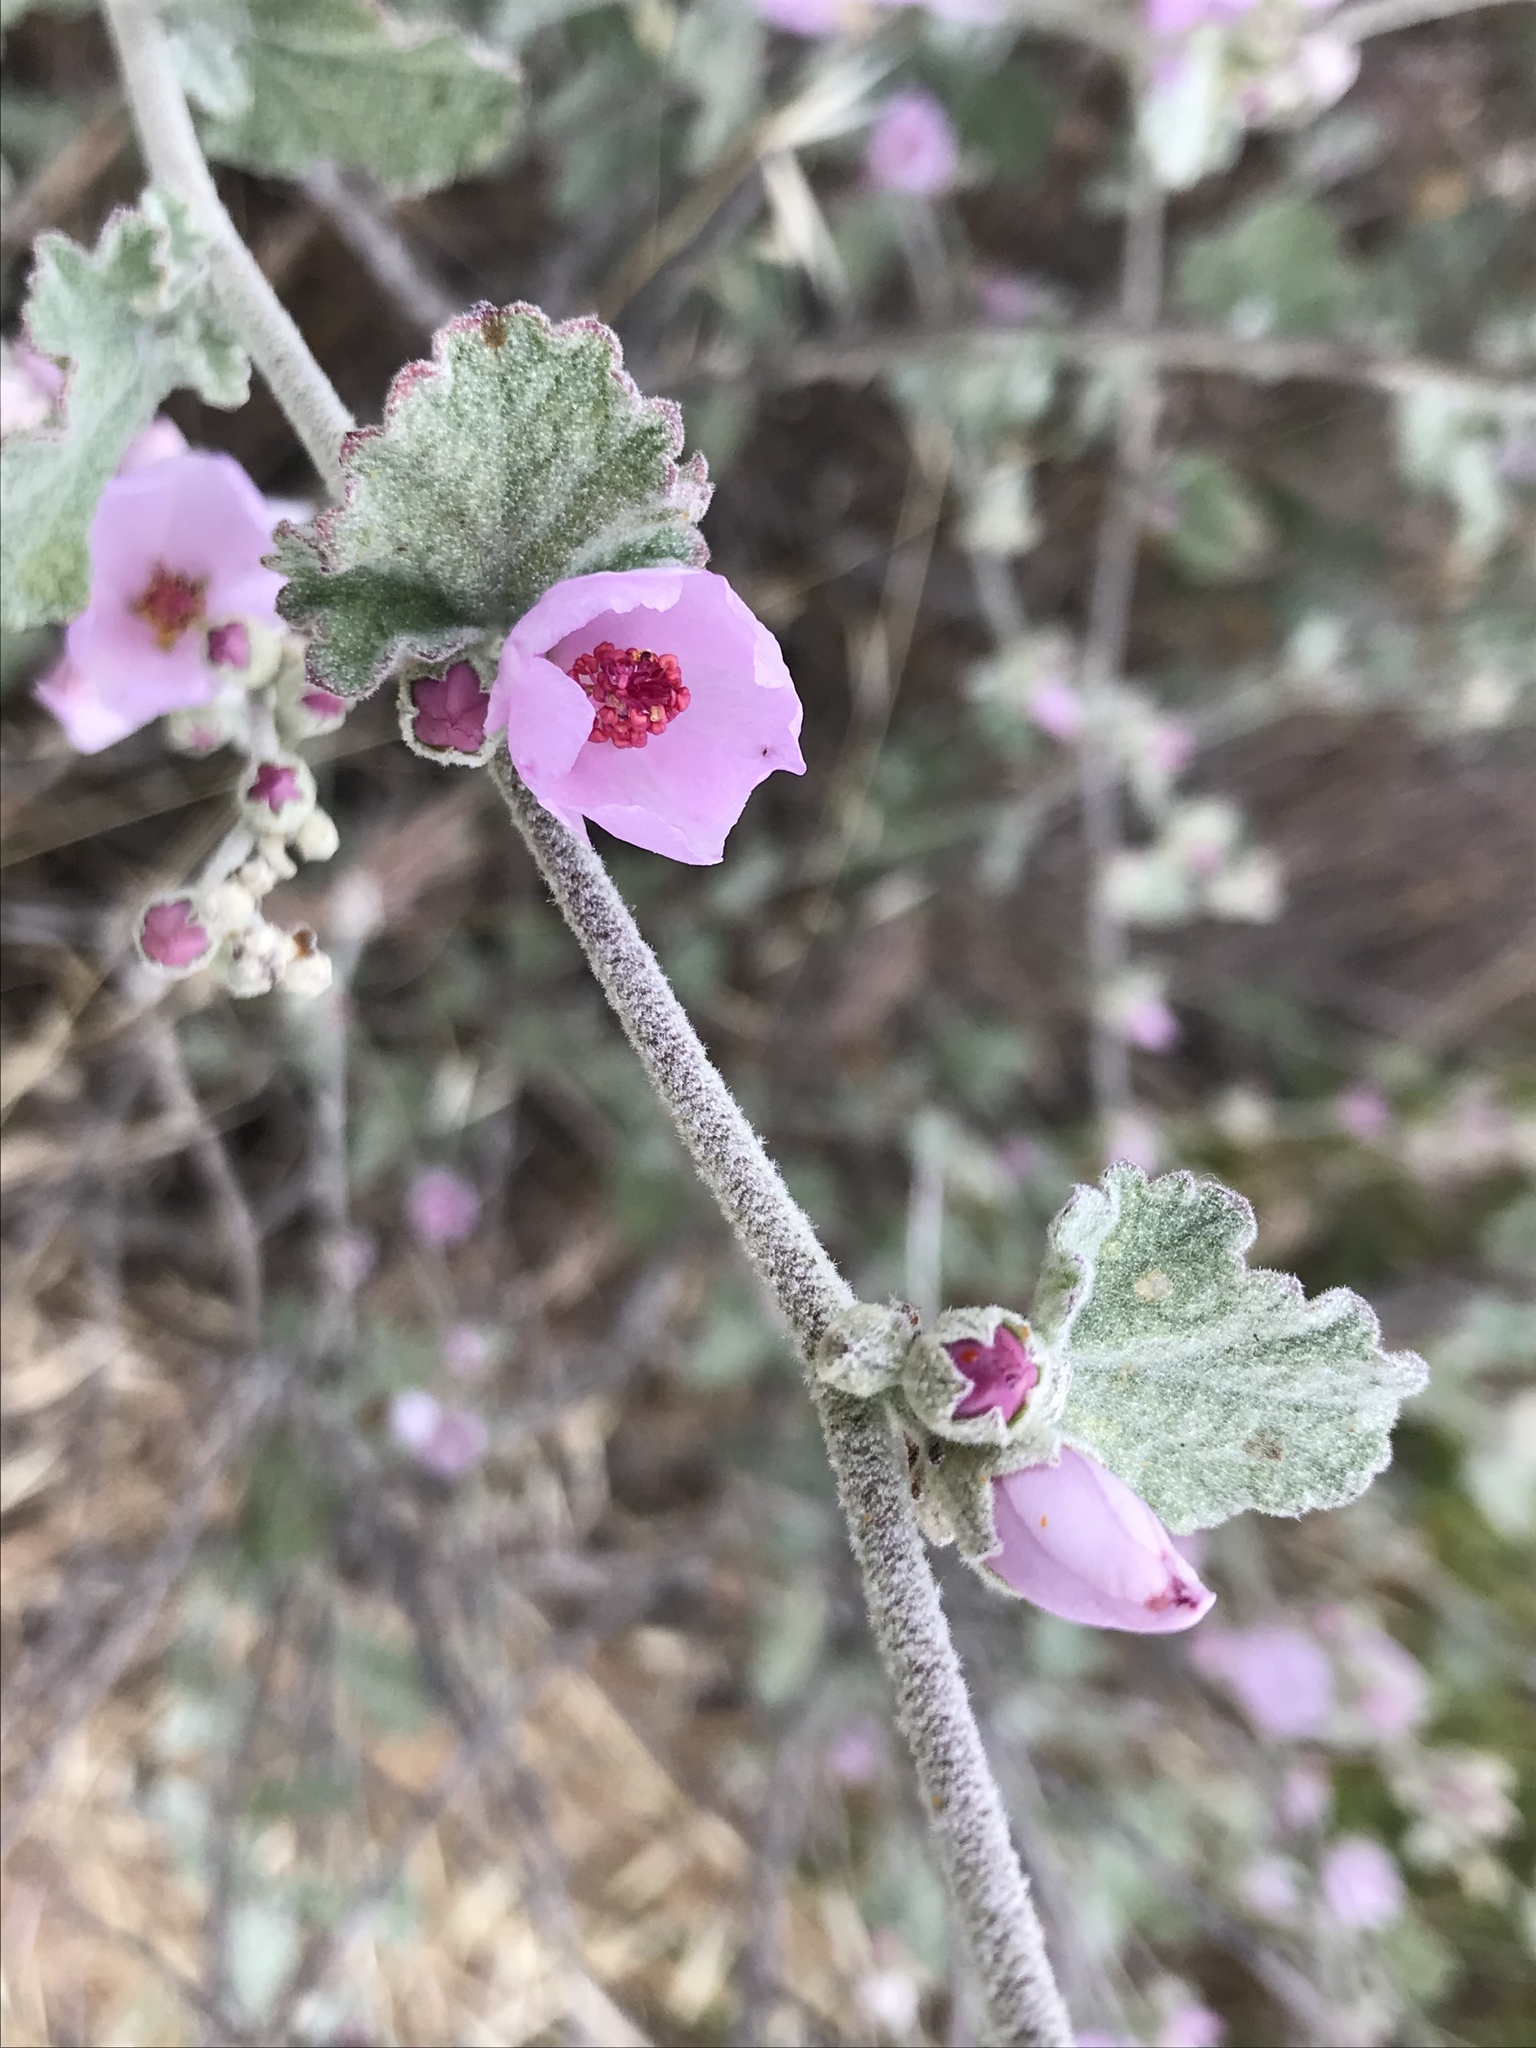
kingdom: Plantae
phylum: Tracheophyta
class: Magnoliopsida
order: Malvales
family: Malvaceae
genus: Malacothamnus
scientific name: Malacothamnus fasciculatus
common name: Sant cruz island bush-mallow
